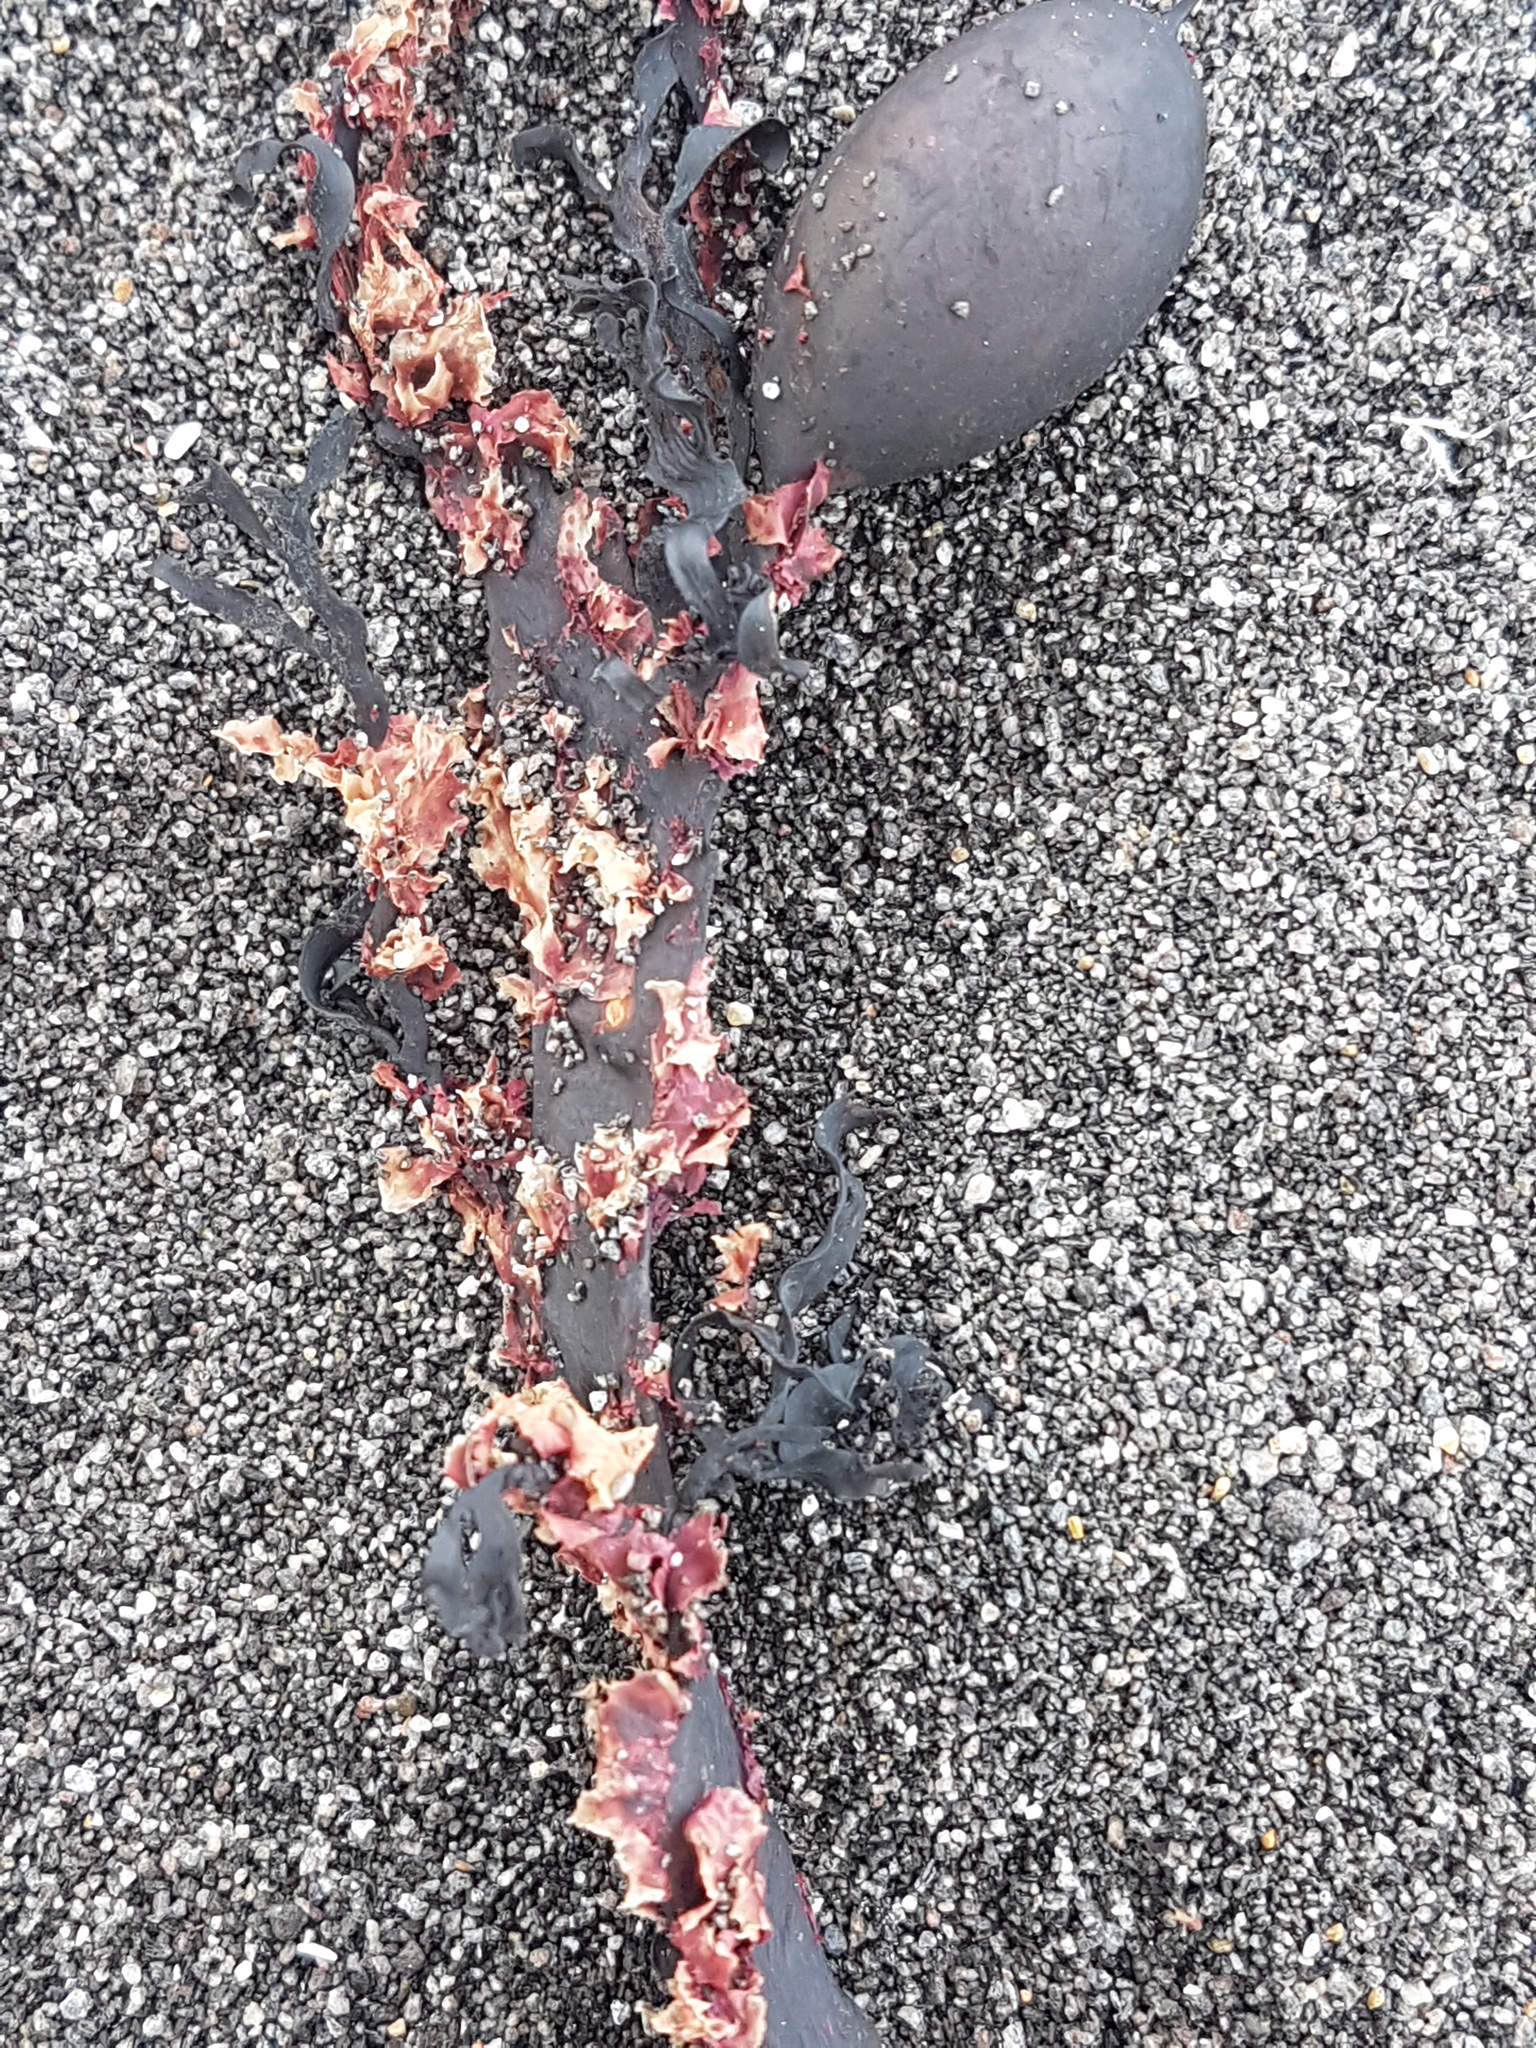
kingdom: Plantae
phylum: Rhodophyta
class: Florideophyceae
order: Ceramiales
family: Delesseriaceae
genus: Abroteia
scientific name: Abroteia suborbicularis
